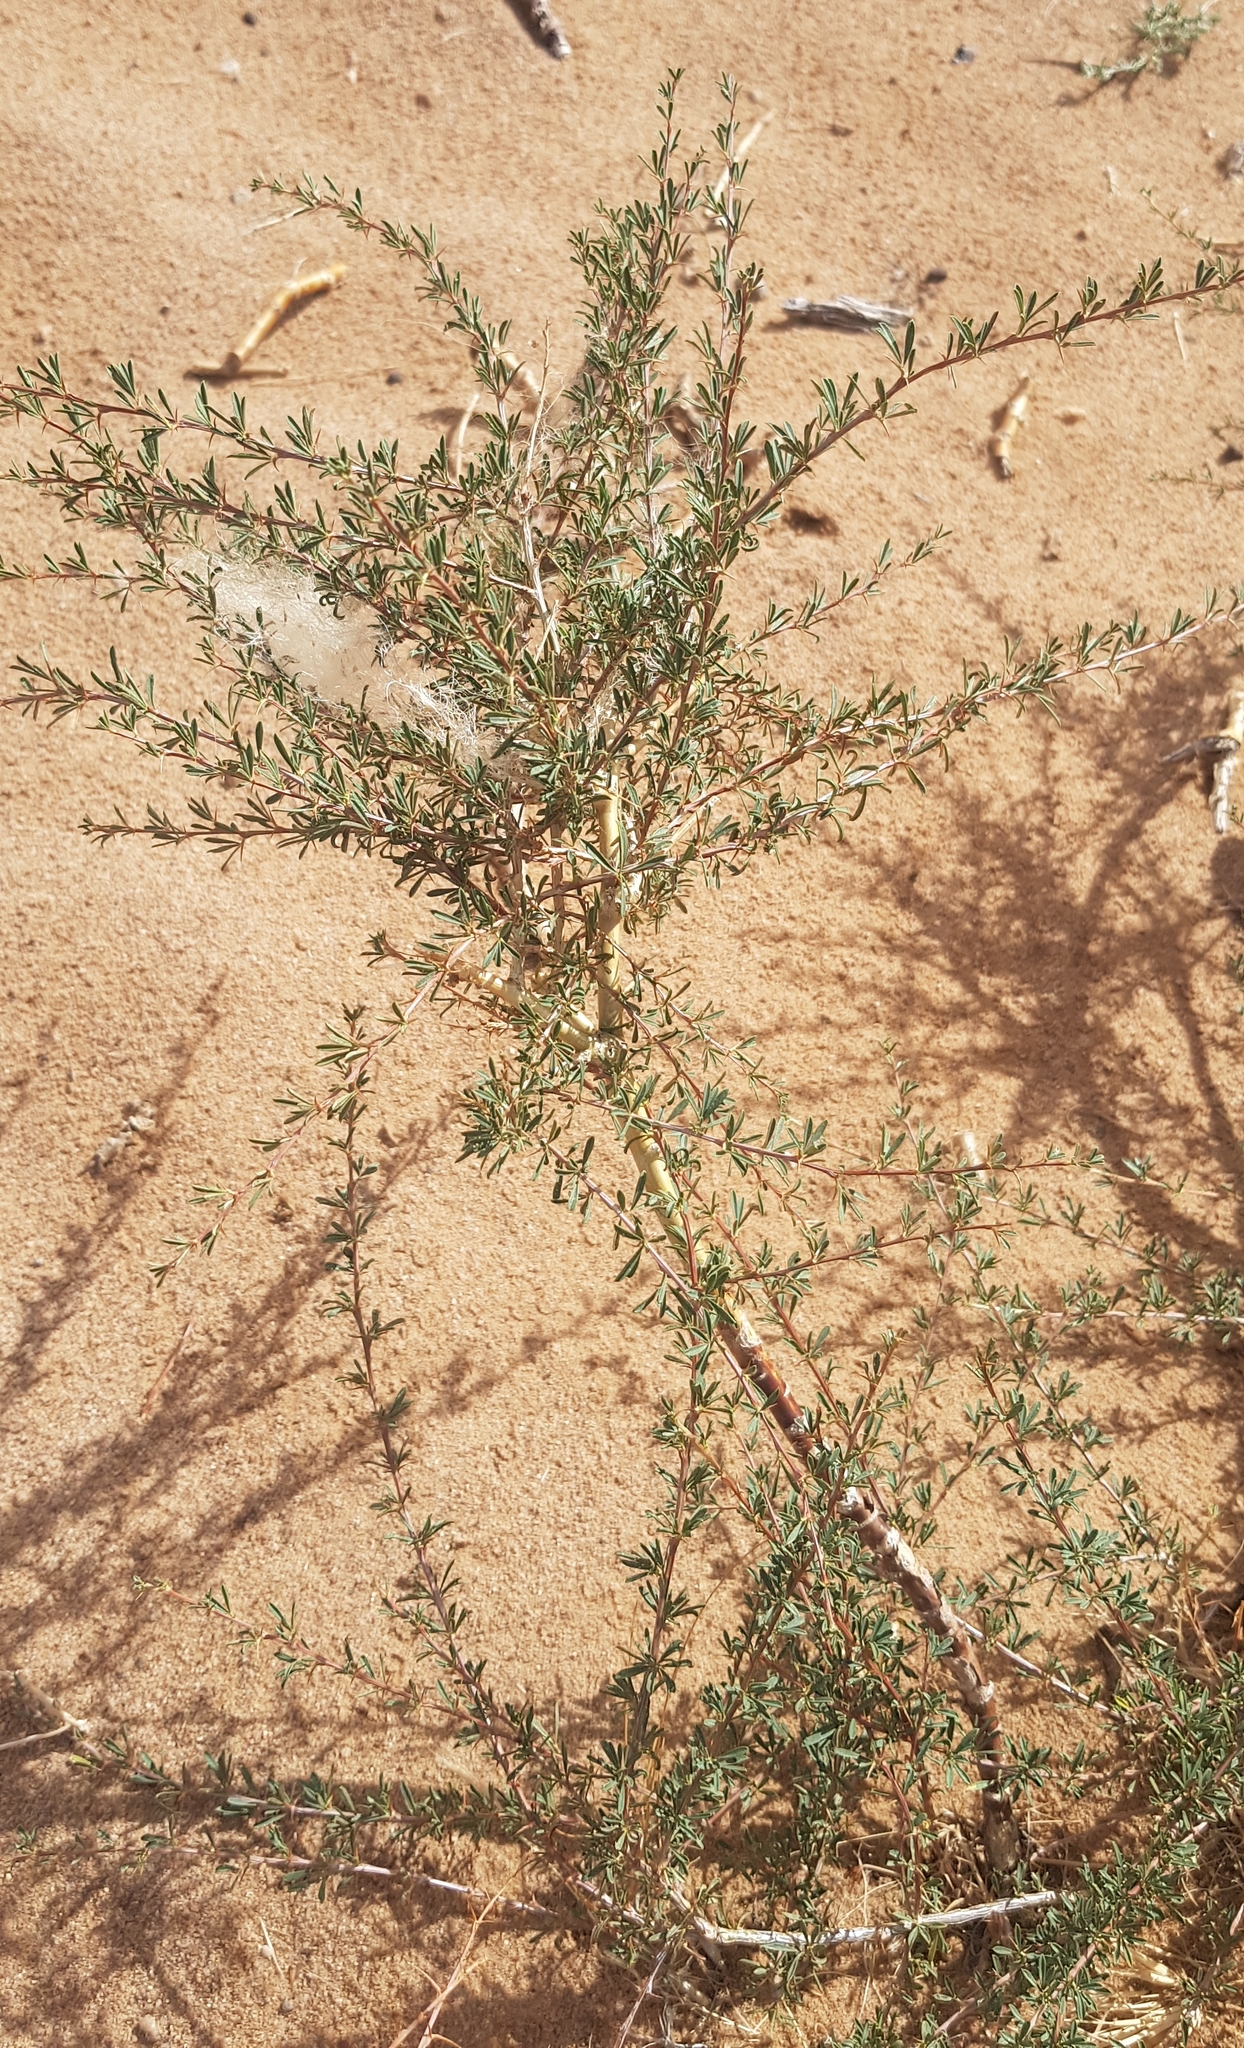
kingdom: Plantae
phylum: Tracheophyta
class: Magnoliopsida
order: Fabales
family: Fabaceae
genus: Caragana
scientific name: Caragana pygmaea
